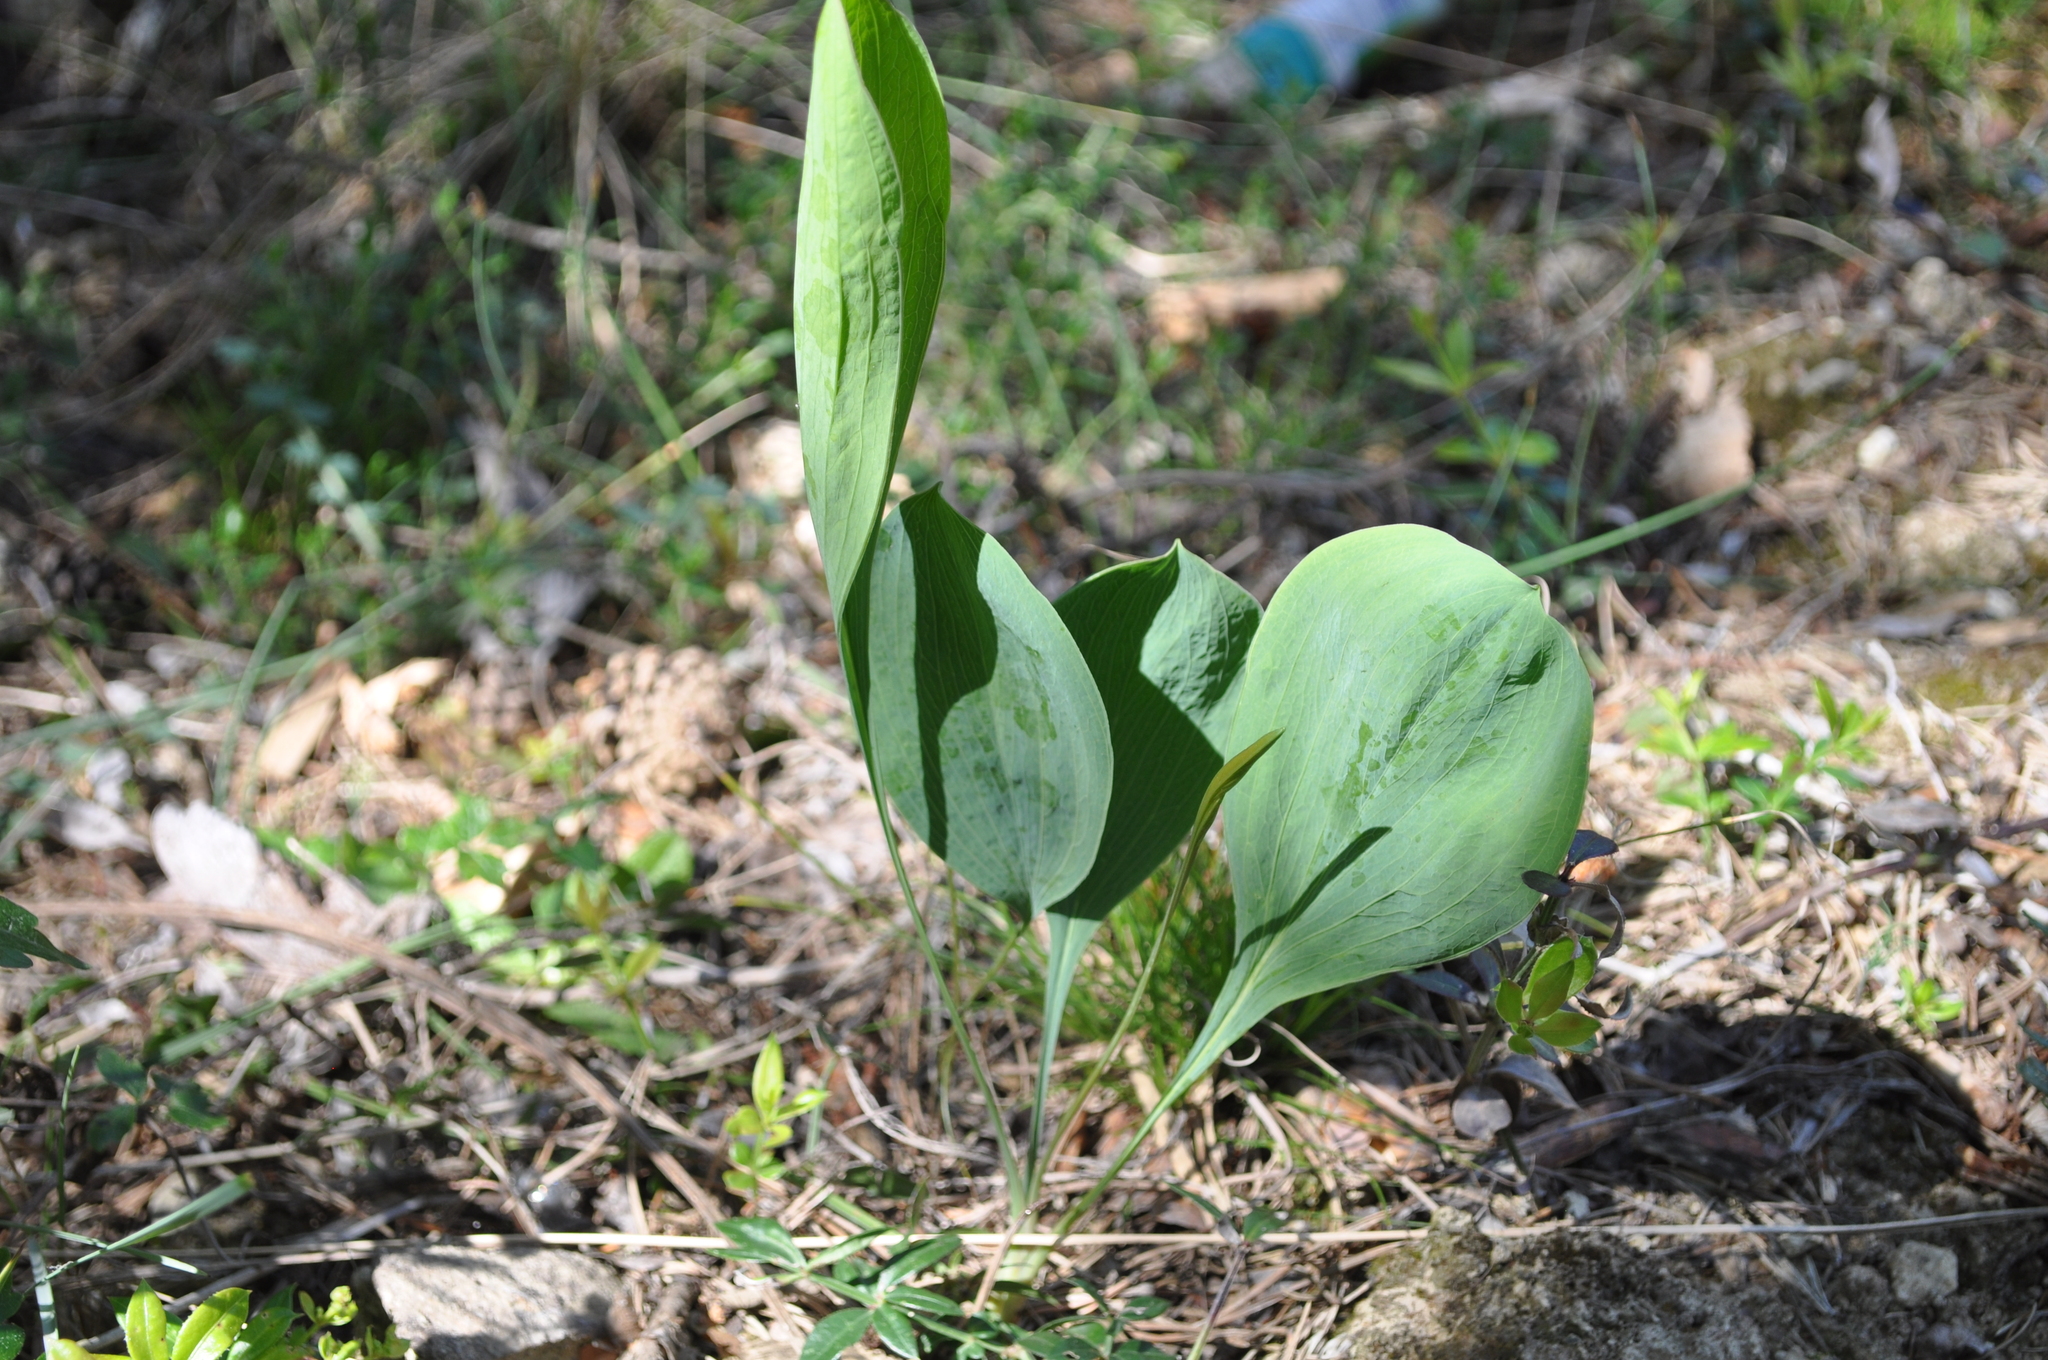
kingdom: Plantae
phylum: Tracheophyta
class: Magnoliopsida
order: Apiales
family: Apiaceae
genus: Bupleurum
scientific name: Bupleurum rigidum
